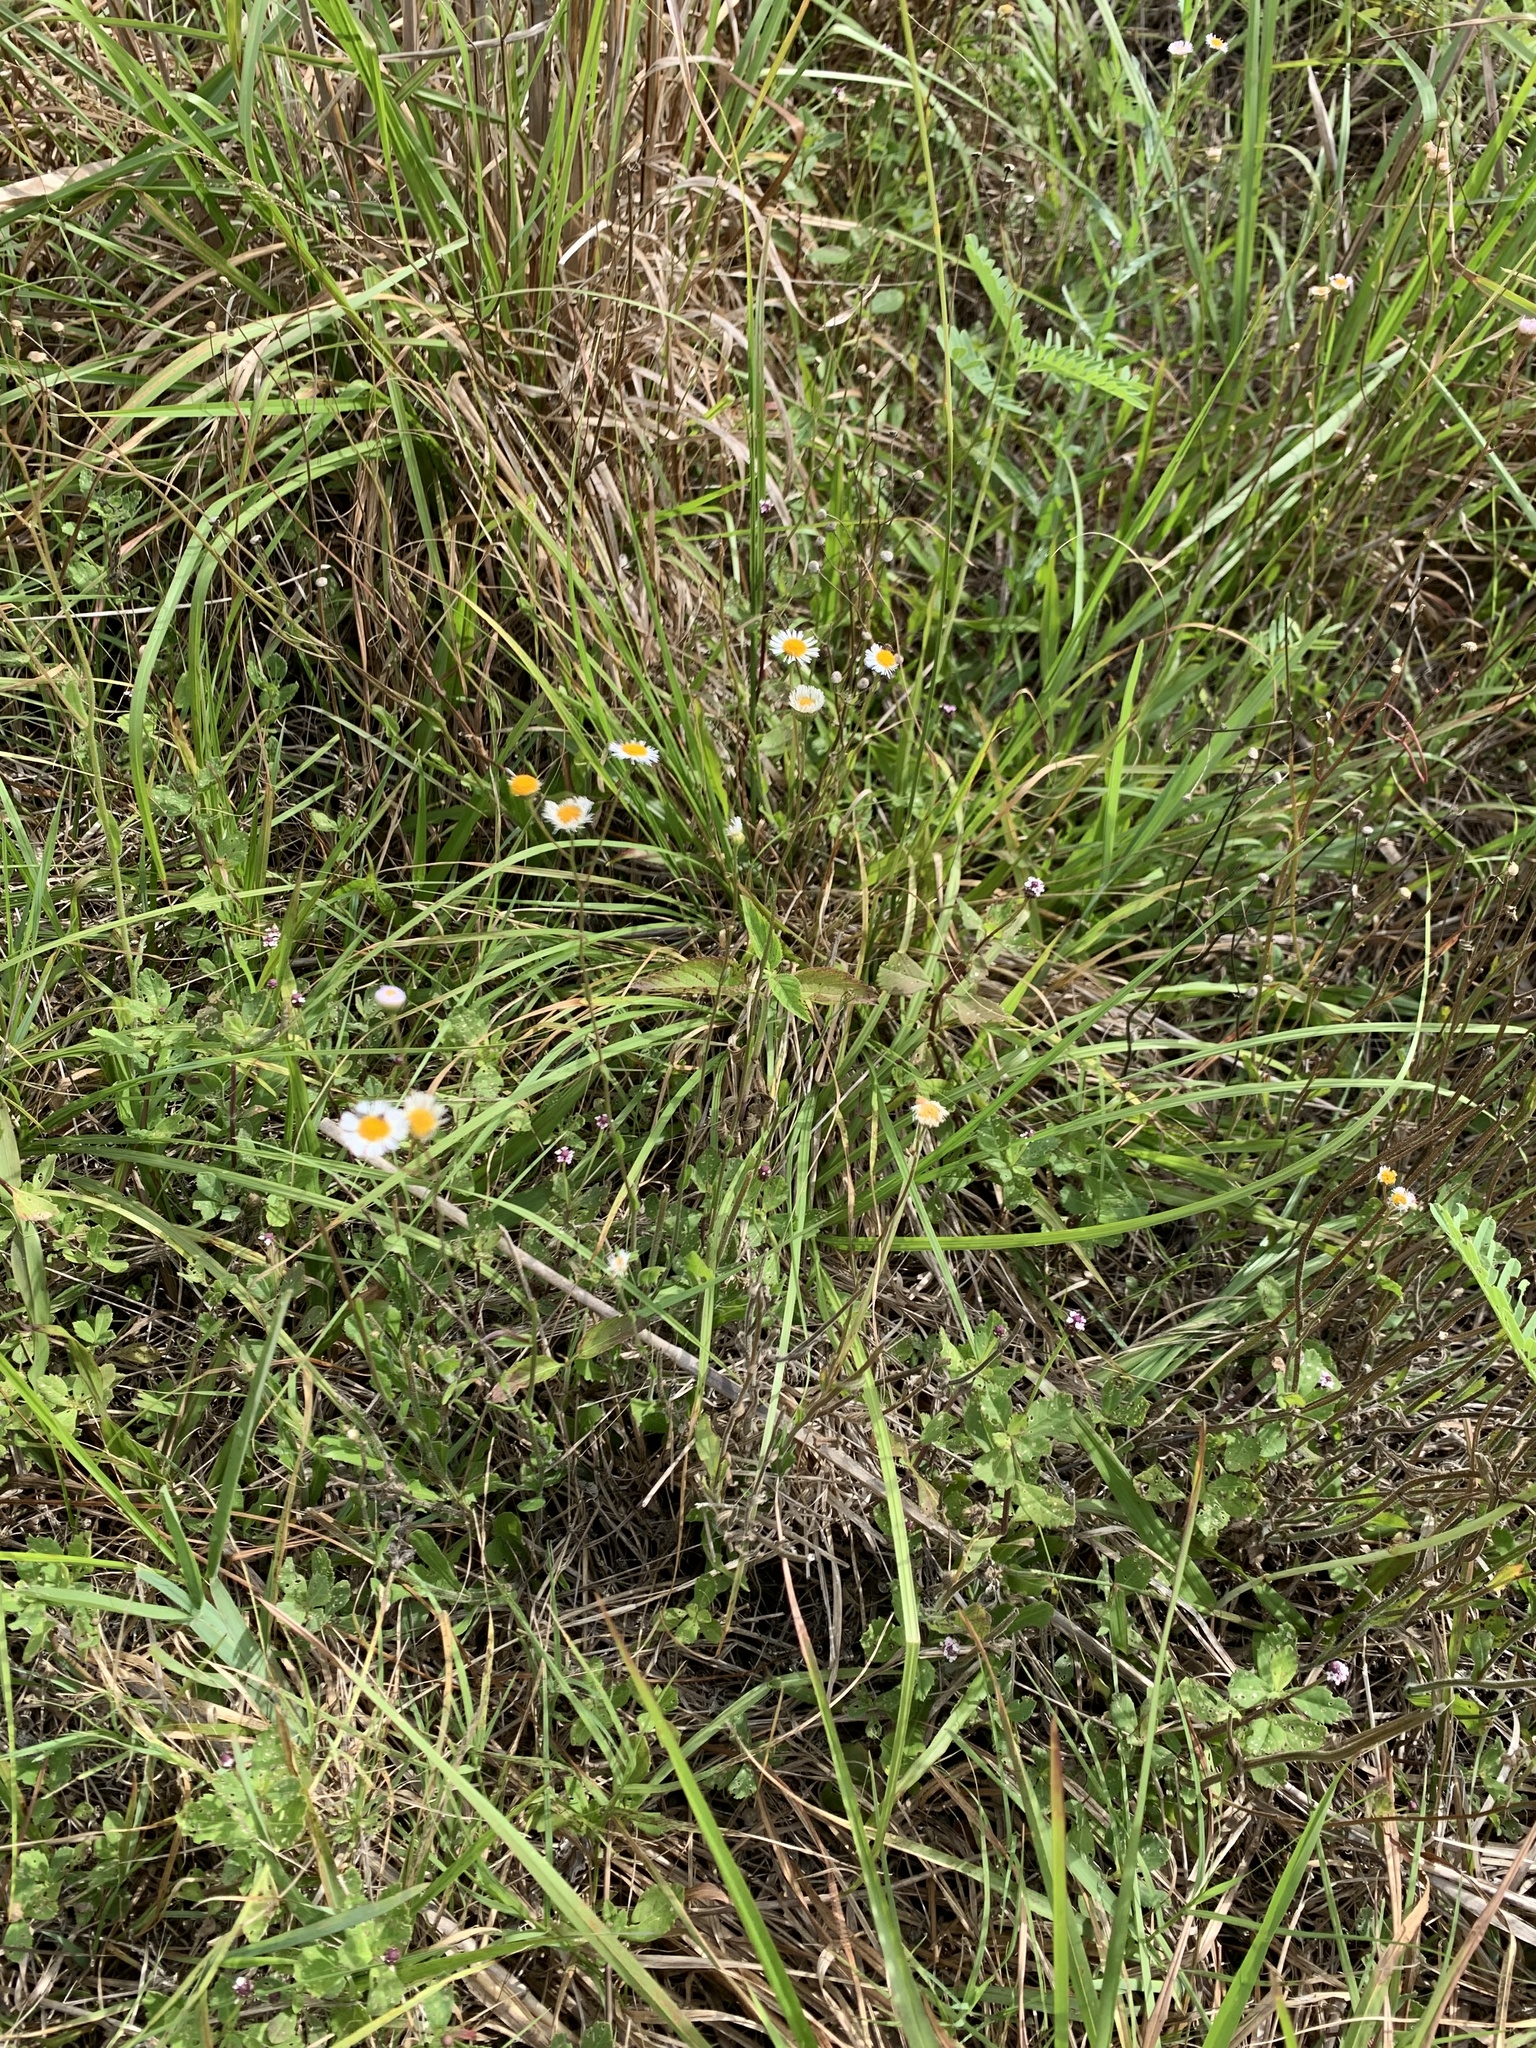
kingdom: Plantae
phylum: Tracheophyta
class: Magnoliopsida
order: Asterales
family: Asteraceae
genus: Erigeron
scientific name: Erigeron quercifolius
